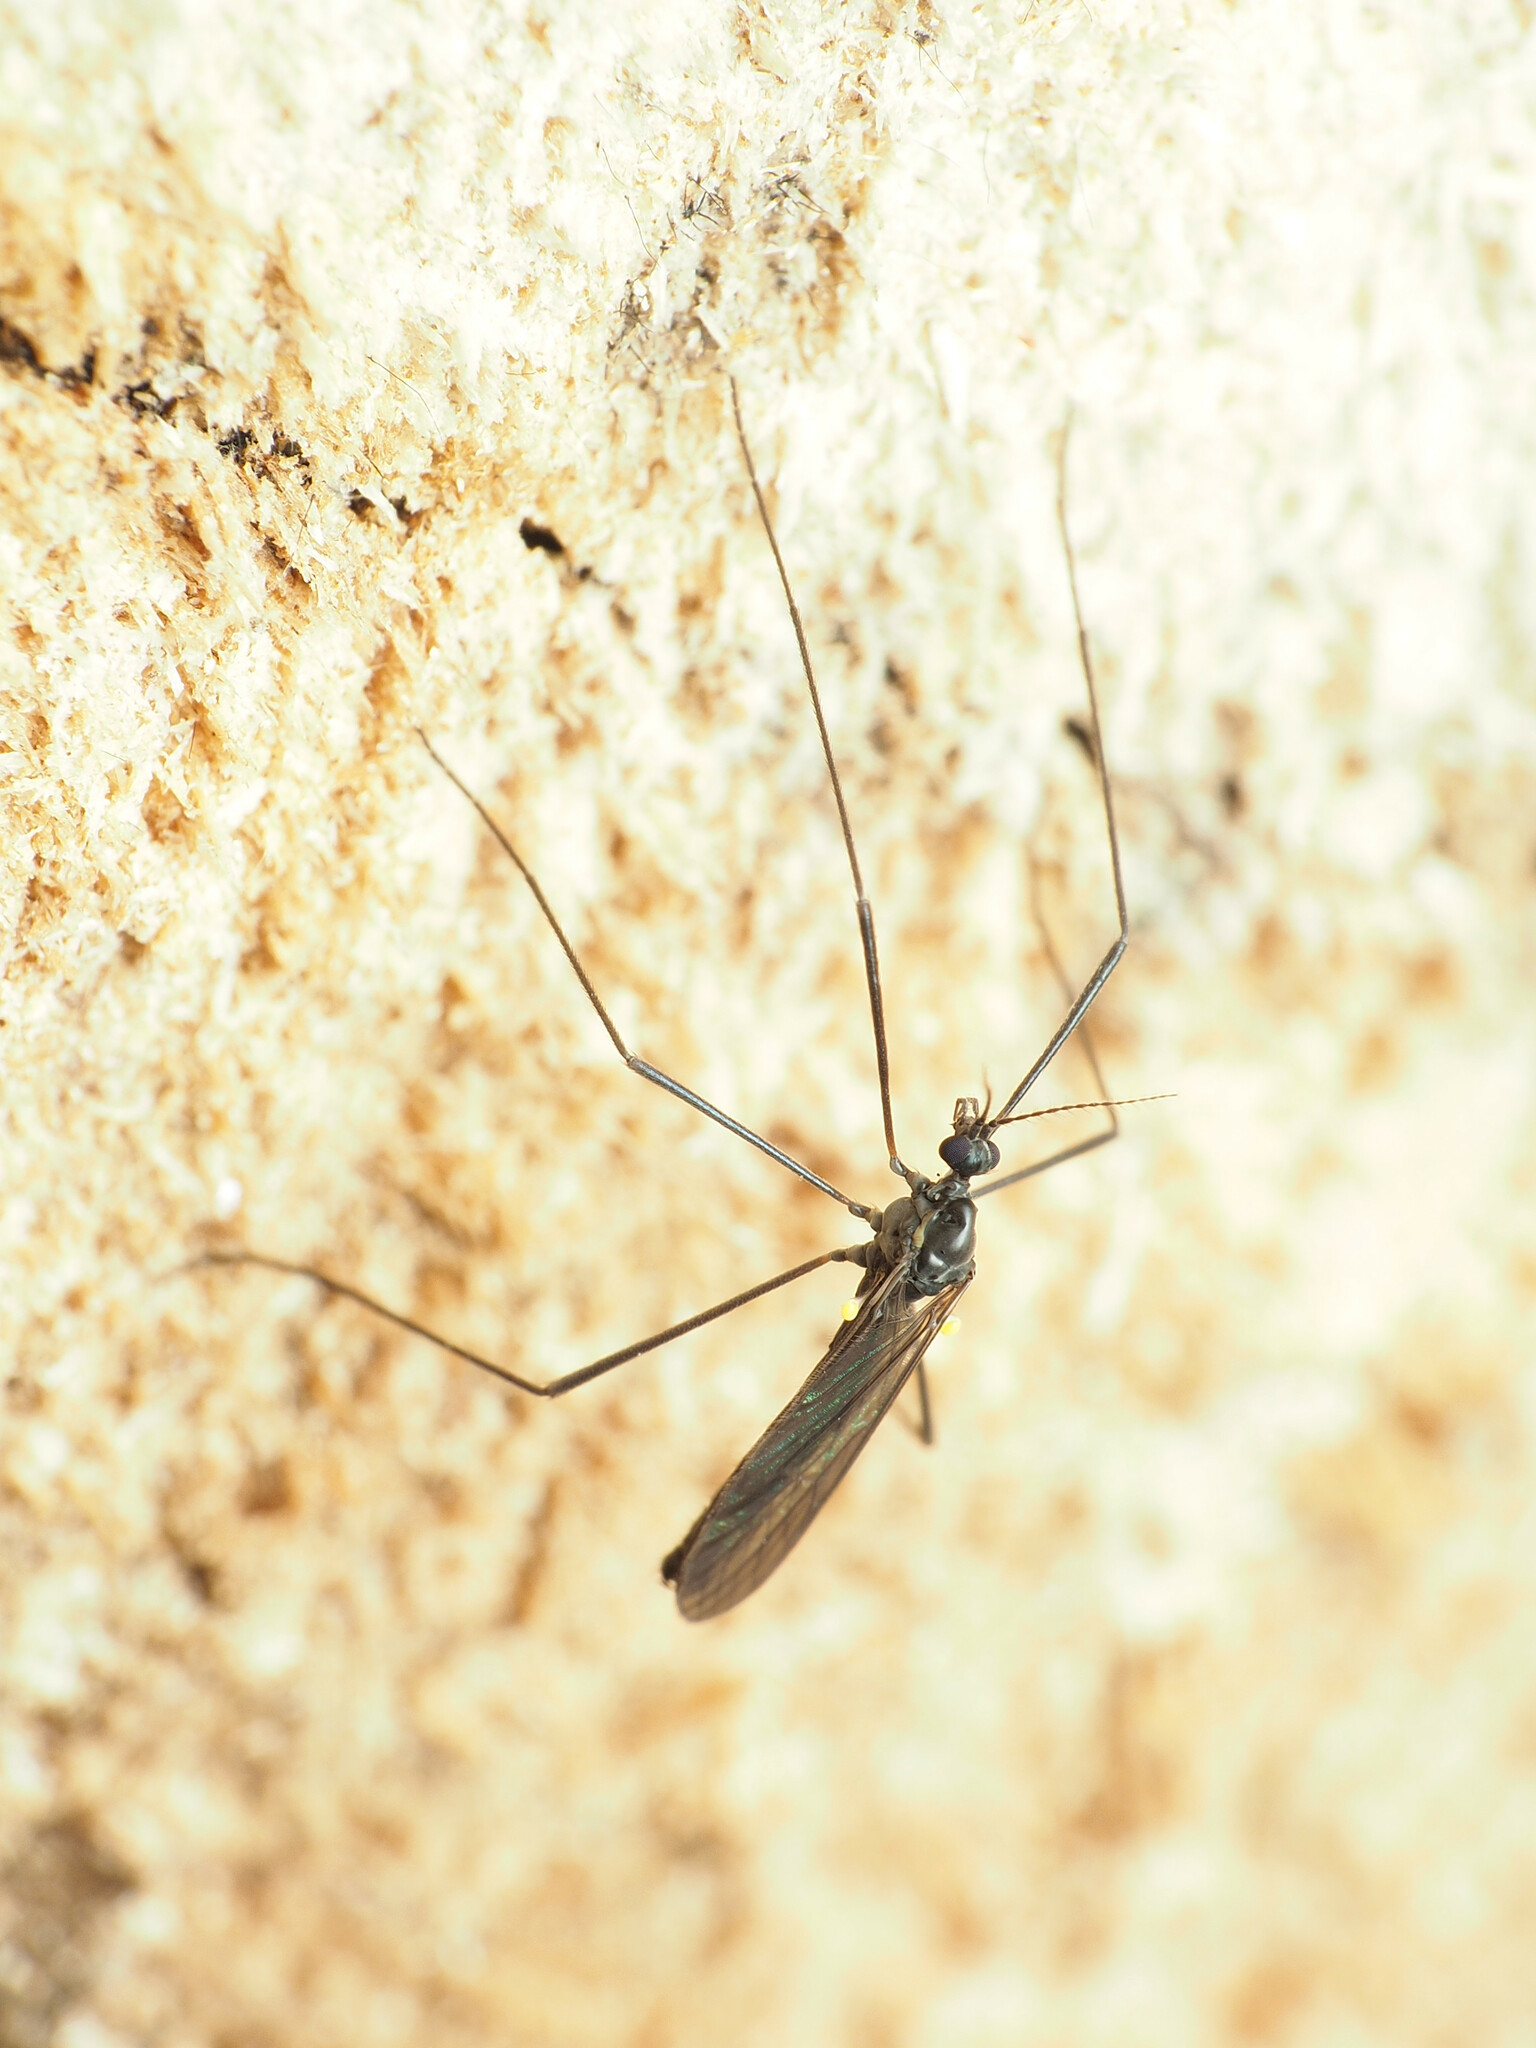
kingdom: Animalia
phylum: Arthropoda
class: Insecta
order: Diptera
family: Limoniidae
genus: Gnophomyia
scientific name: Gnophomyia tristissima
